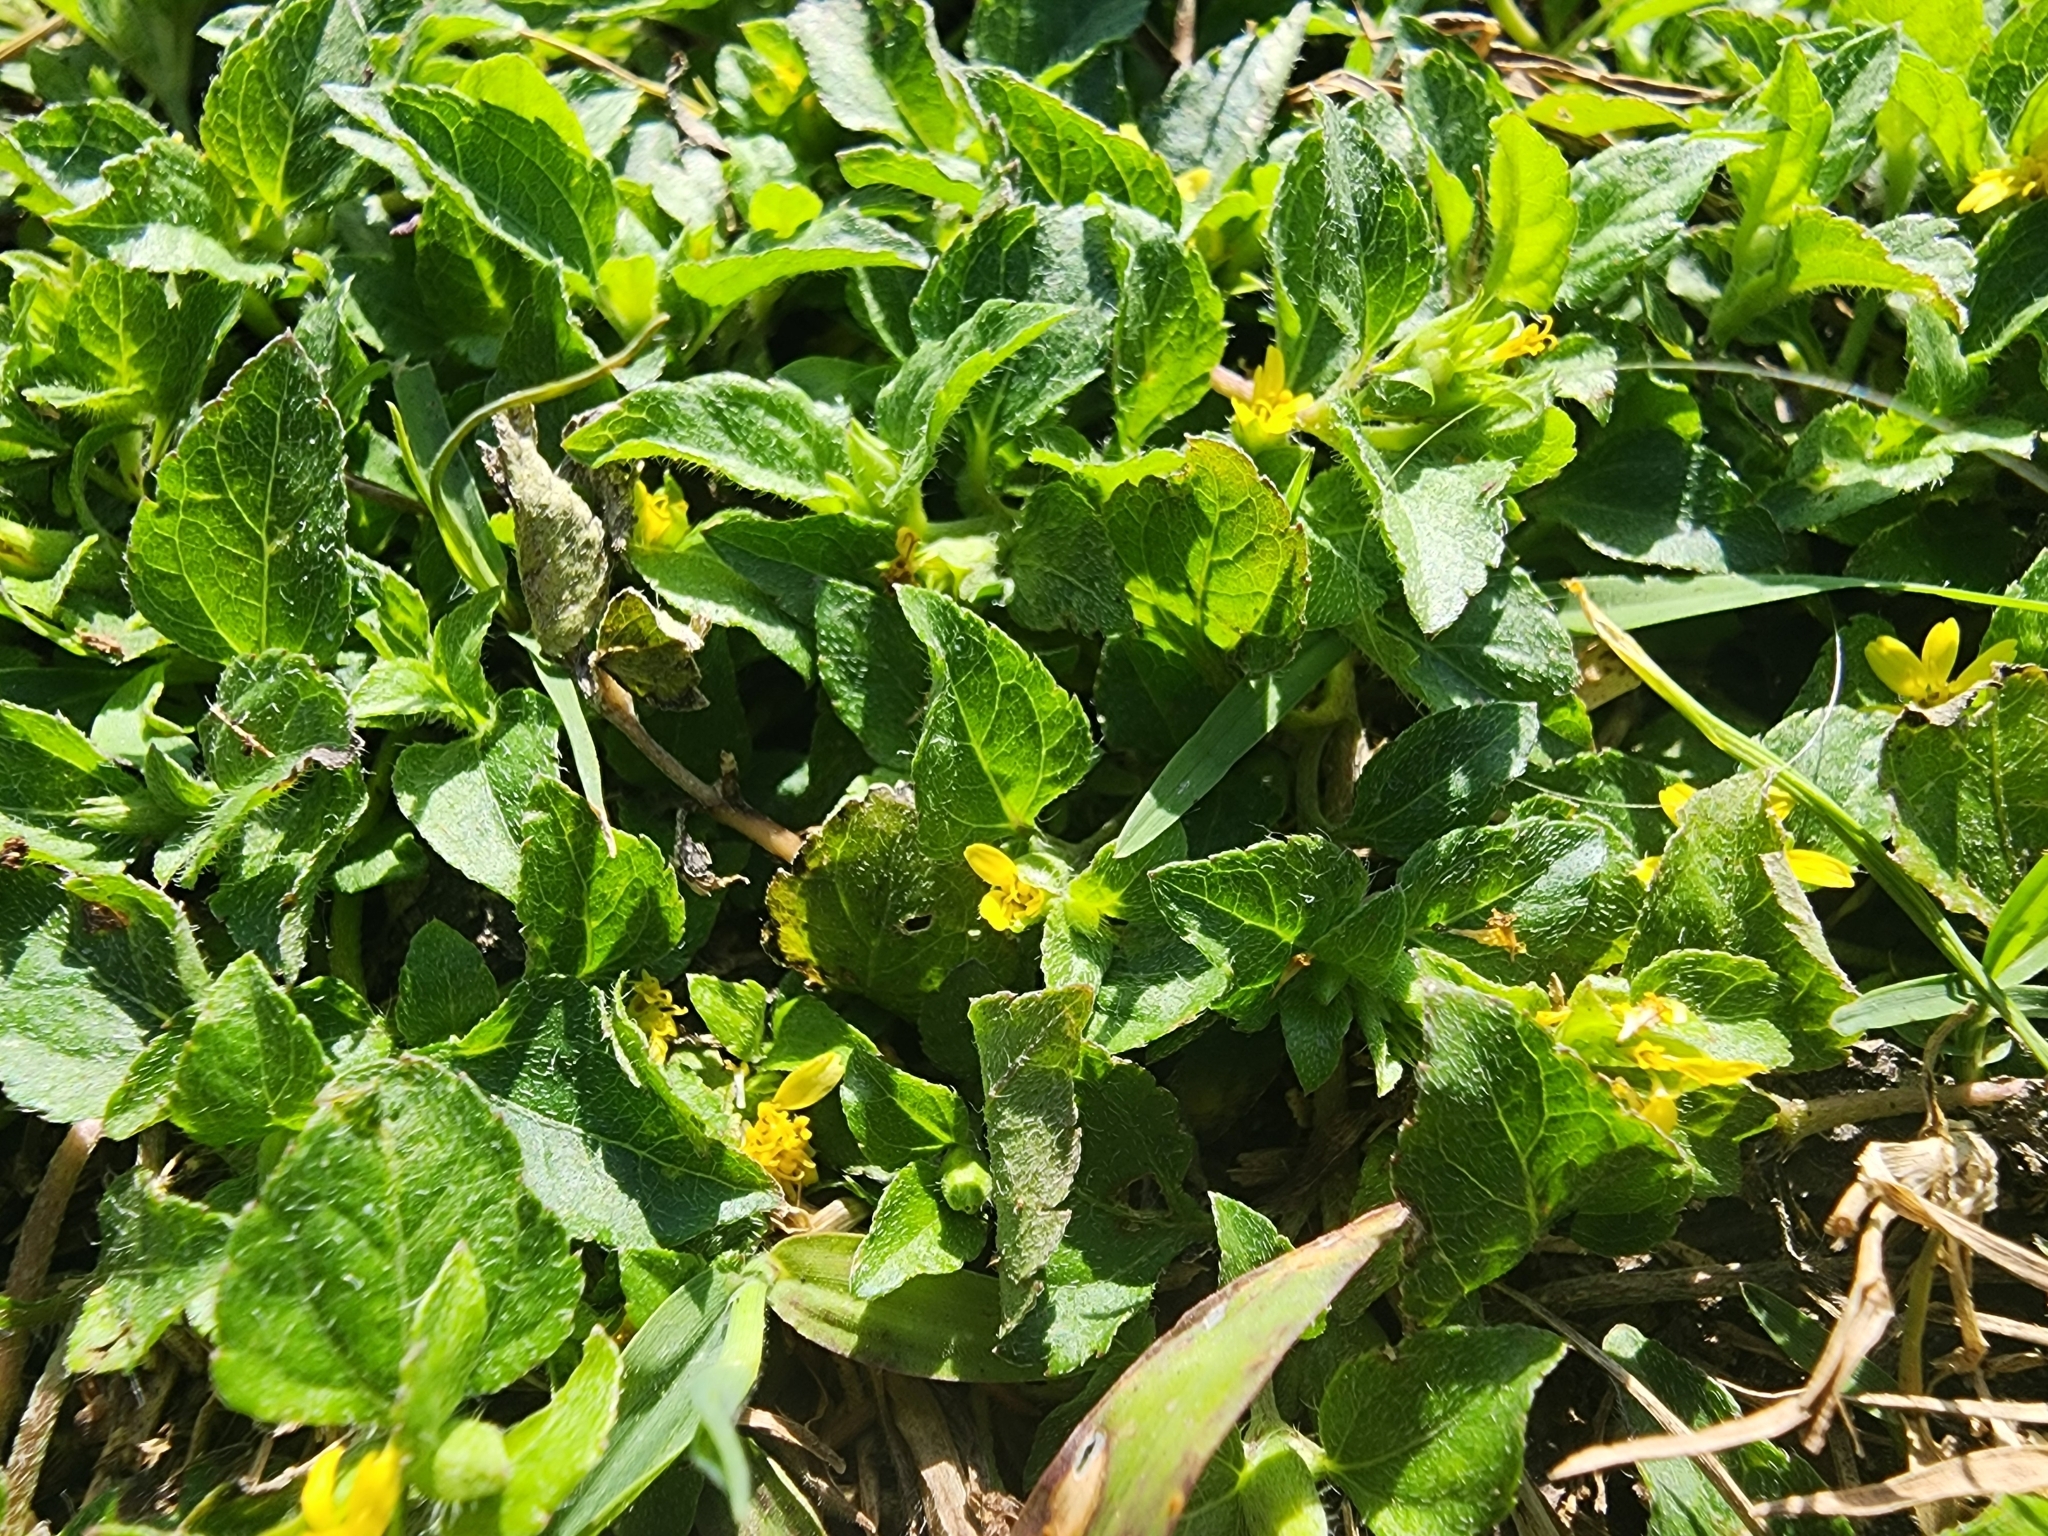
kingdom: Plantae
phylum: Tracheophyta
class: Magnoliopsida
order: Asterales
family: Asteraceae
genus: Calyptocarpus
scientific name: Calyptocarpus vialis
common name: Straggler daisy
